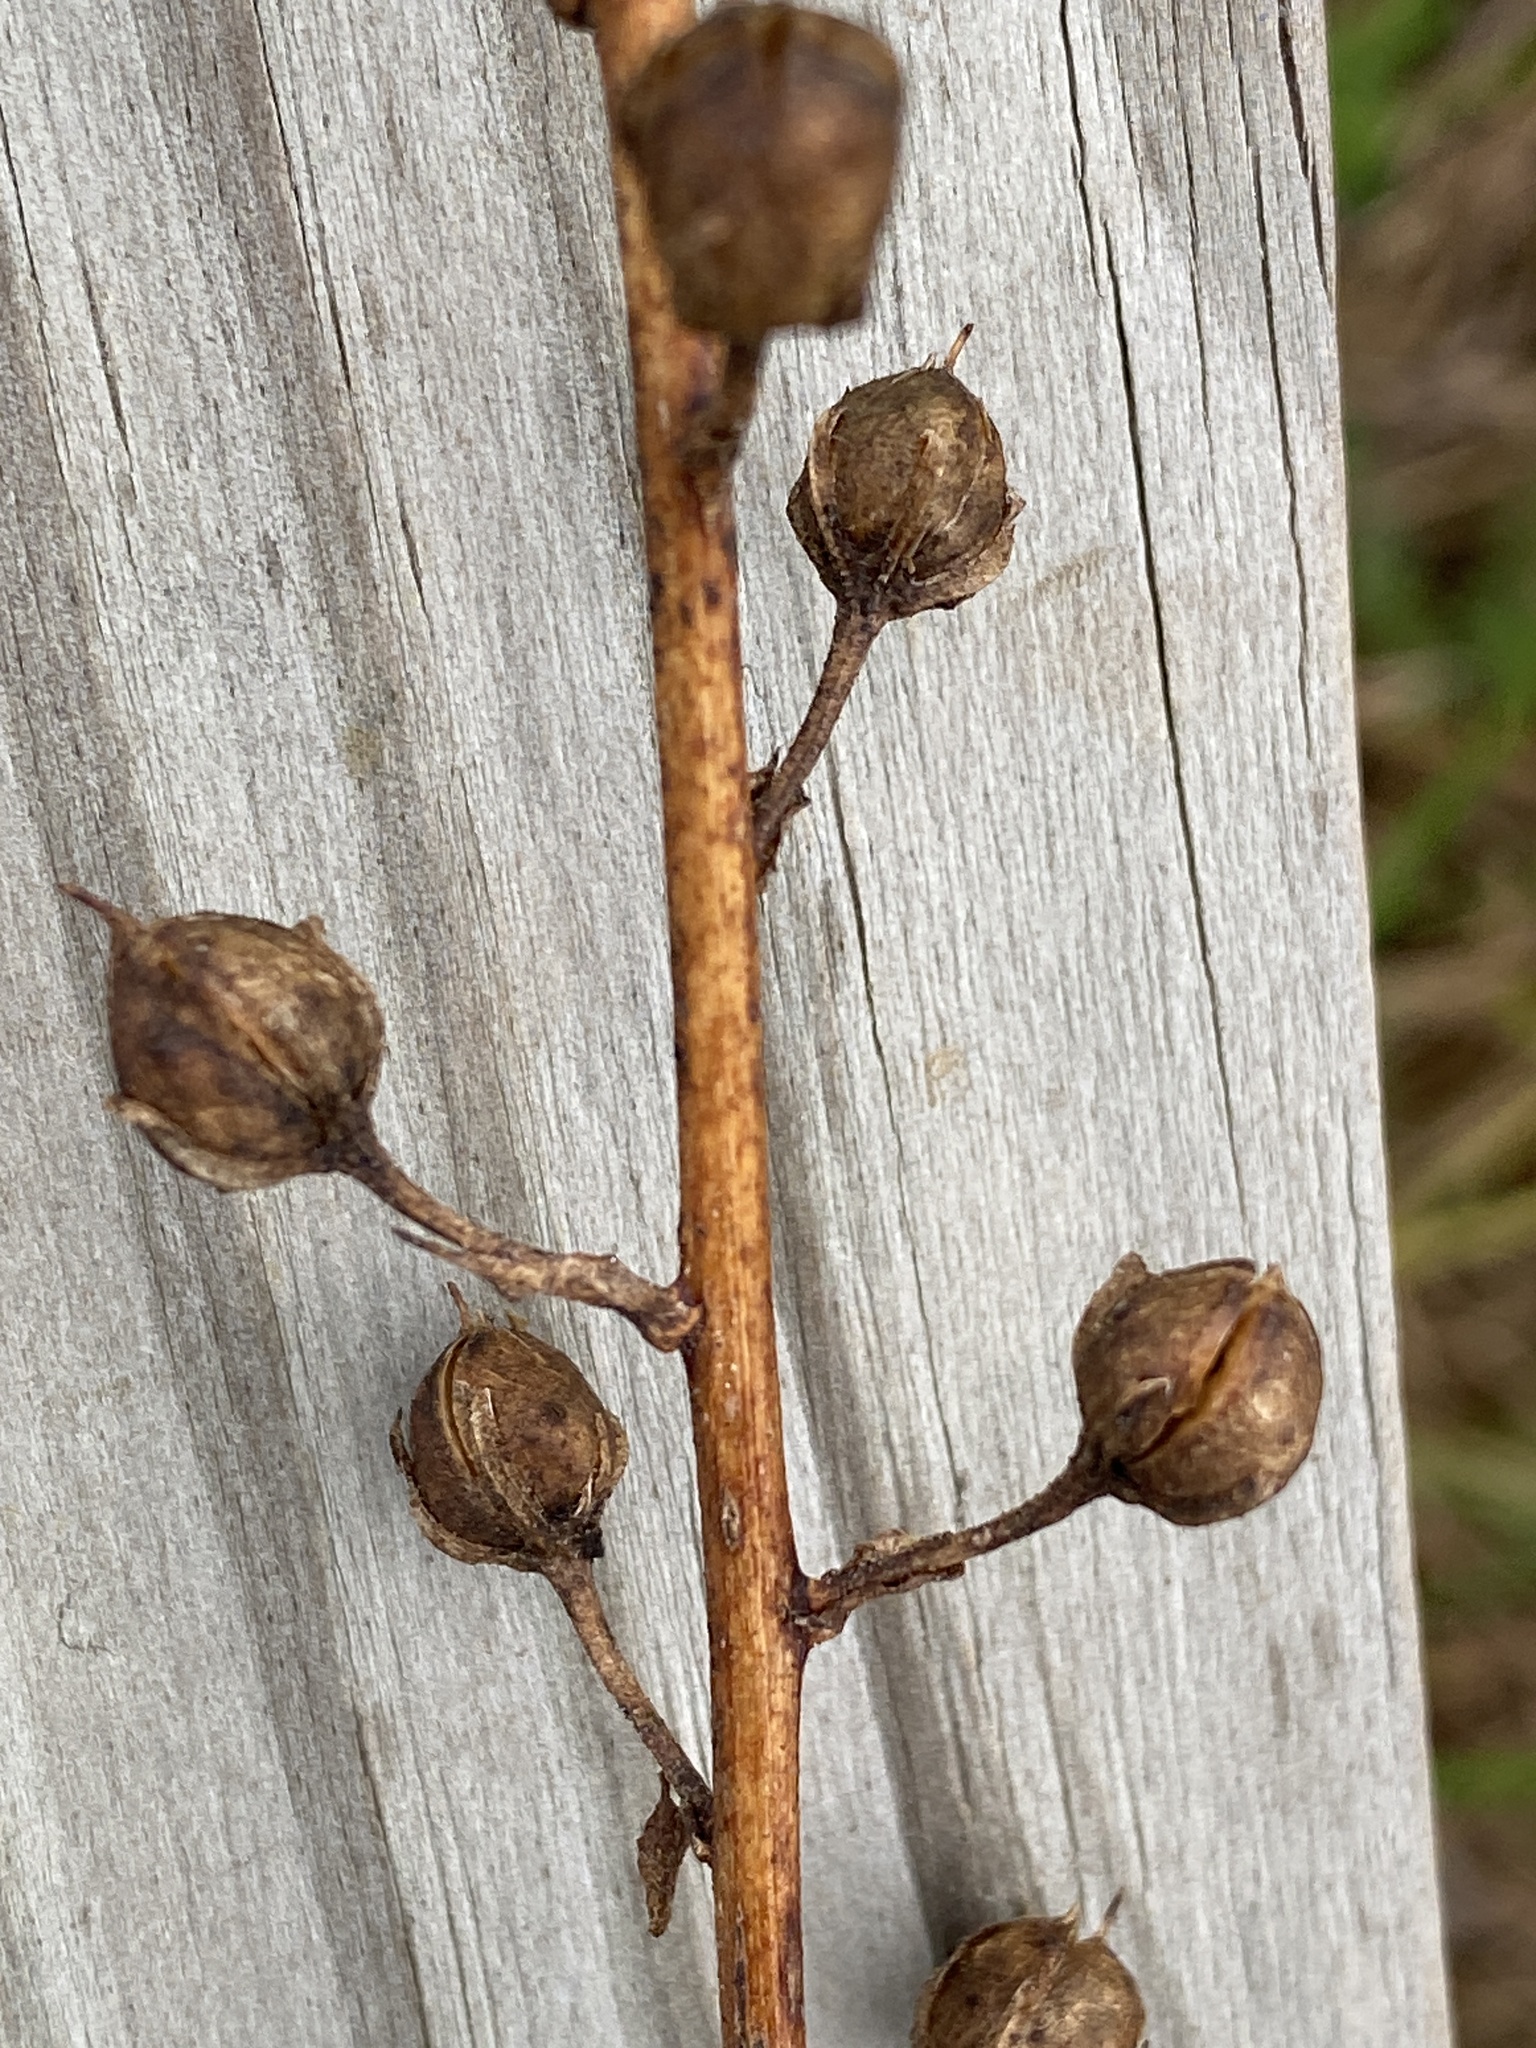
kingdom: Plantae
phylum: Tracheophyta
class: Magnoliopsida
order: Lamiales
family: Scrophulariaceae
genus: Verbascum
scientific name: Verbascum blattaria
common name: Moth mullein
